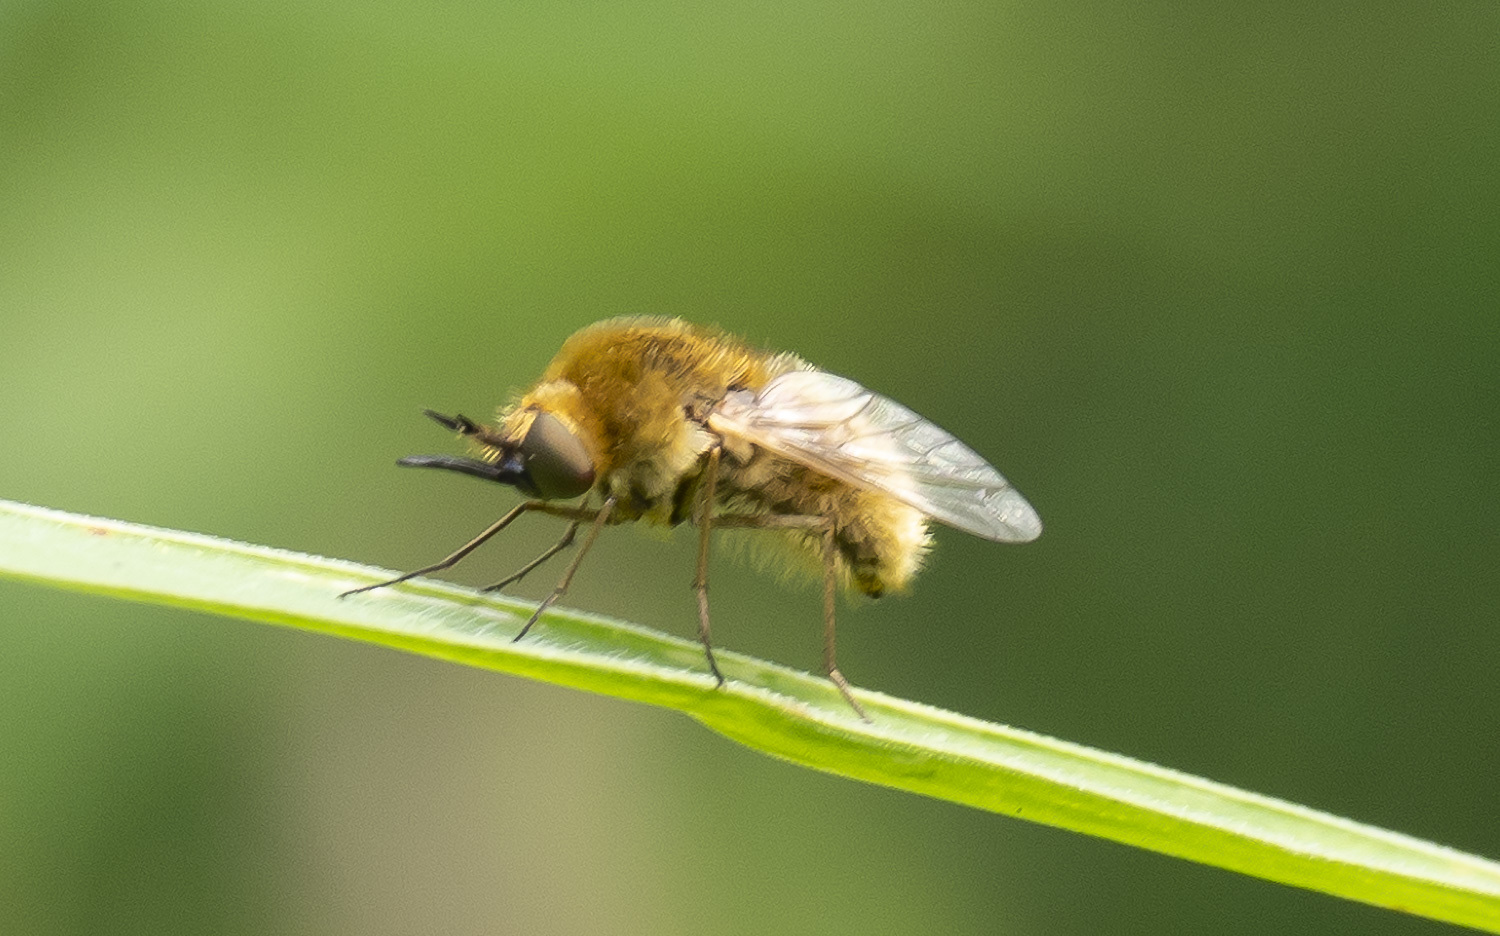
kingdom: Animalia
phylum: Arthropoda
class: Insecta
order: Diptera
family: Bombyliidae
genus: Sparnopolius
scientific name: Sparnopolius confusus
